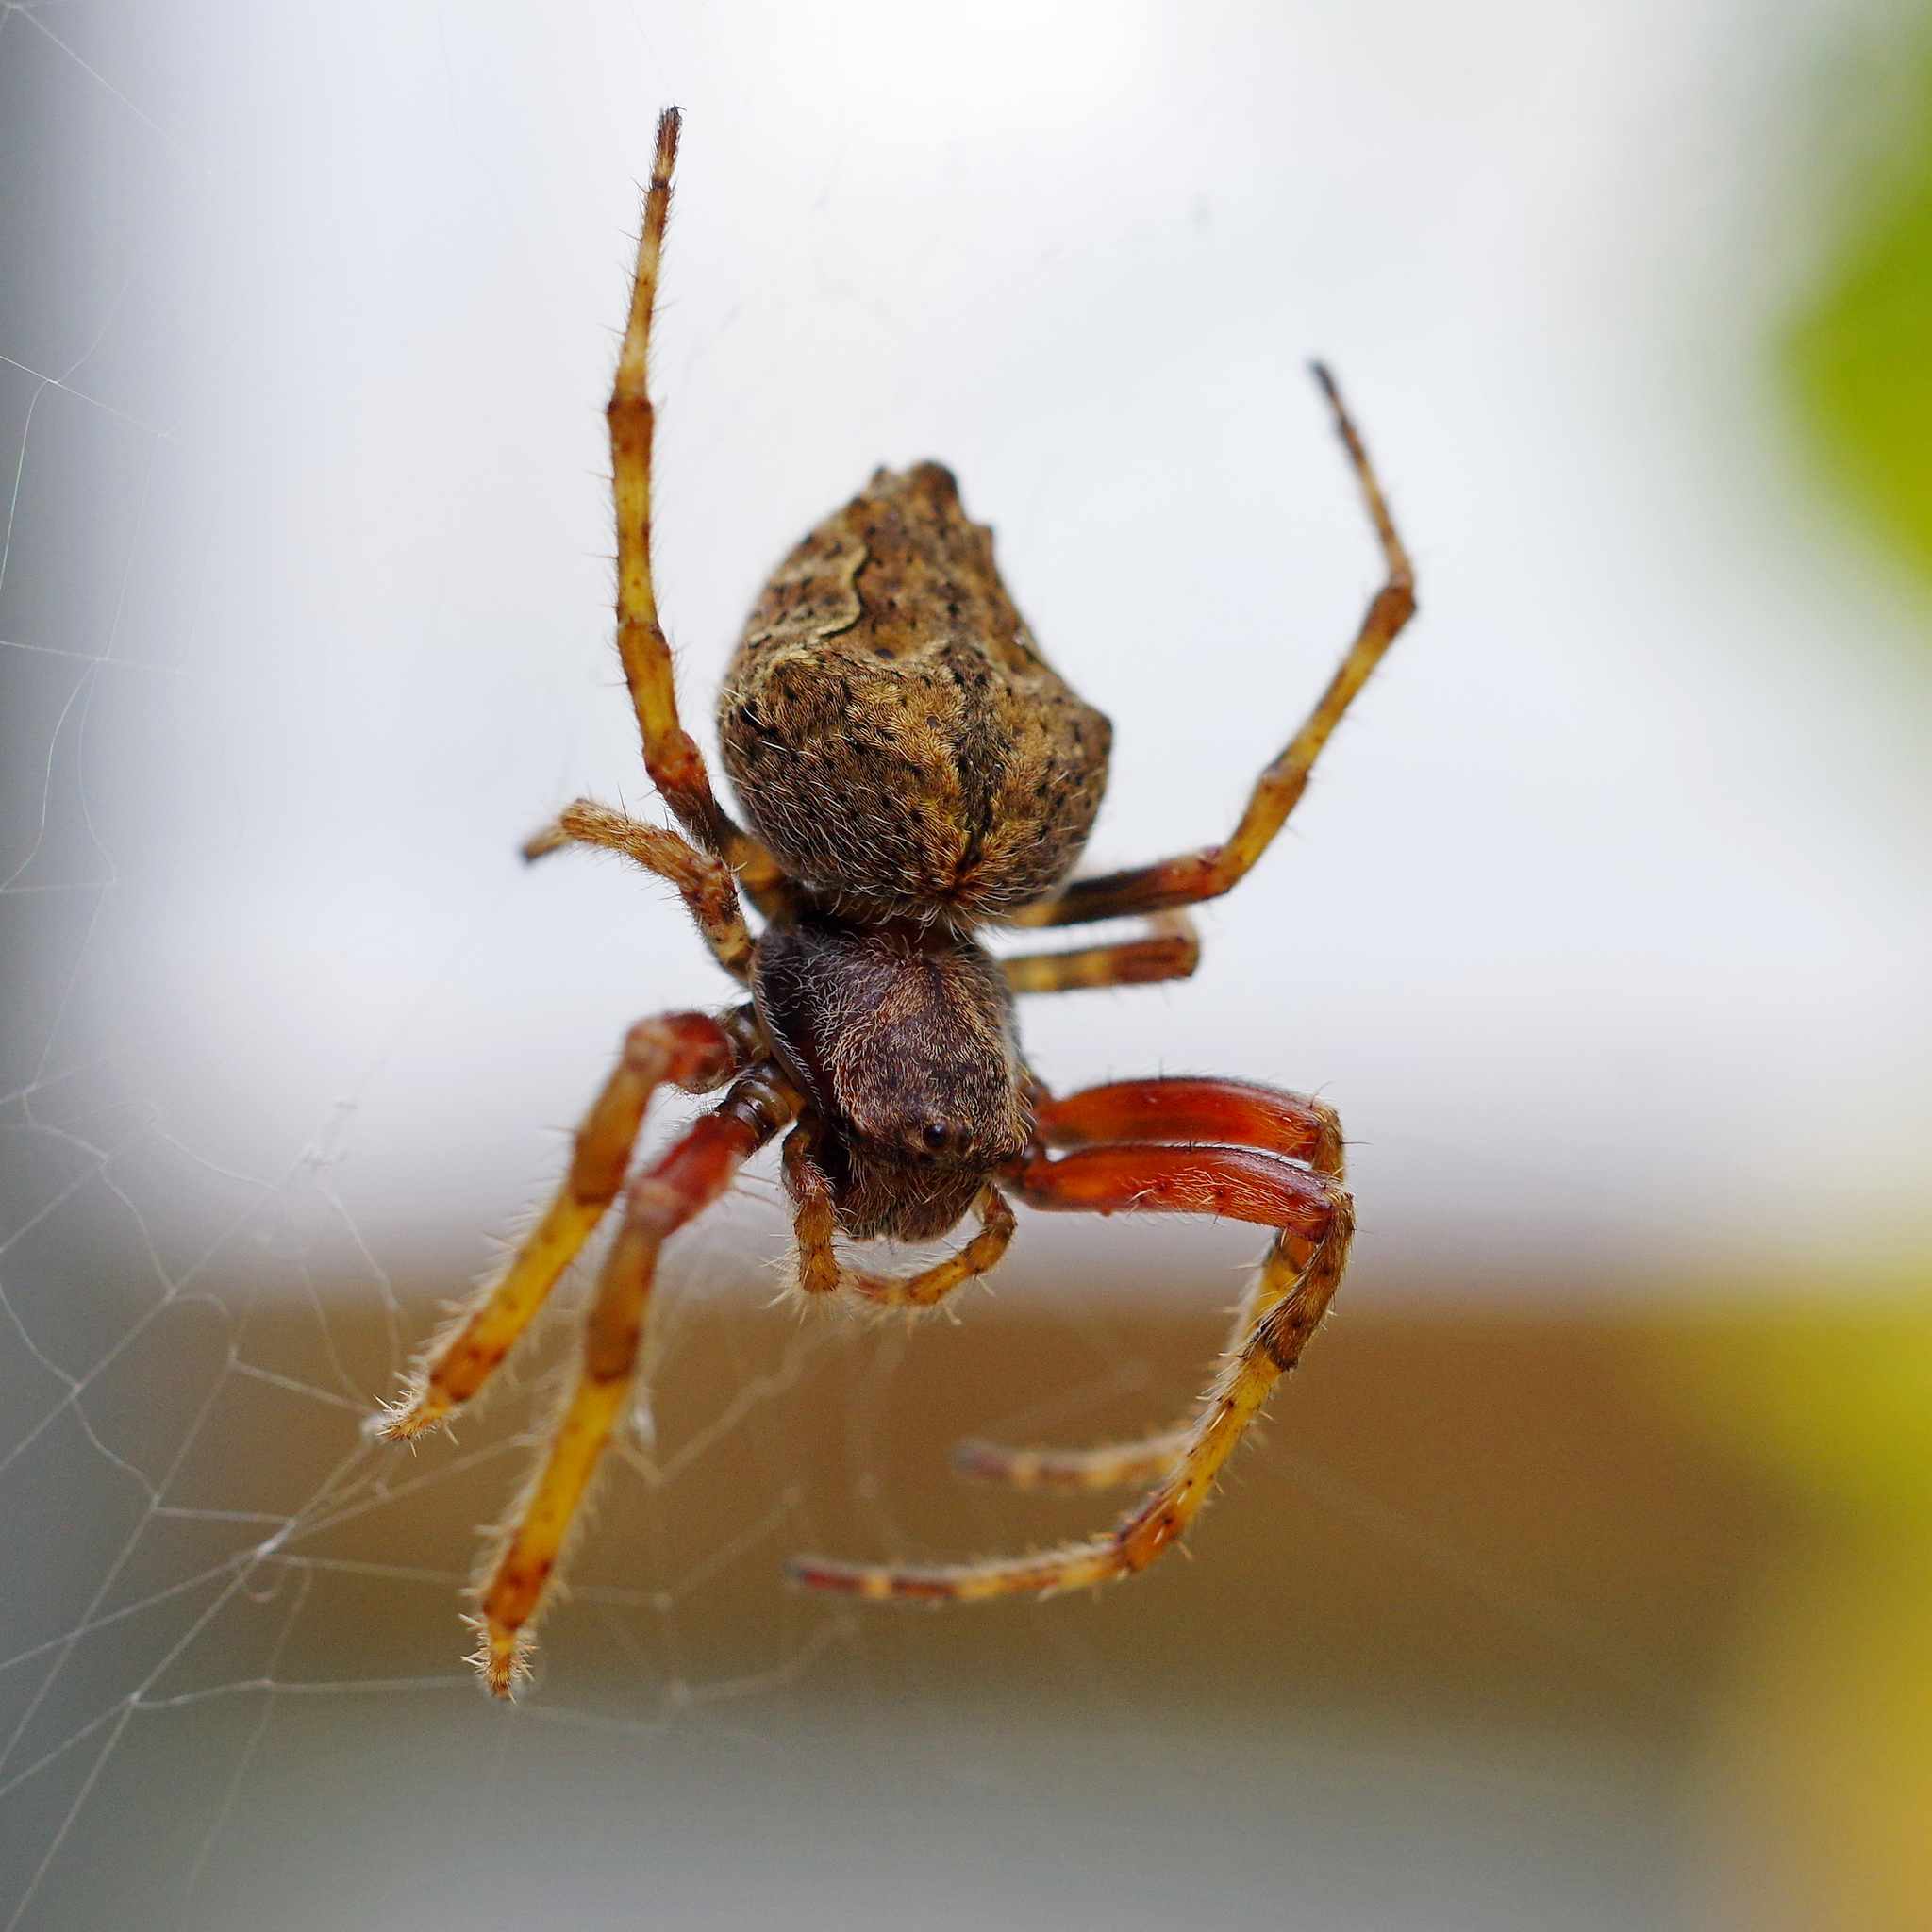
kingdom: Animalia
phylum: Arthropoda
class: Arachnida
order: Araneae
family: Araneidae
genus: Eriophora
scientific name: Eriophora pustulosa
